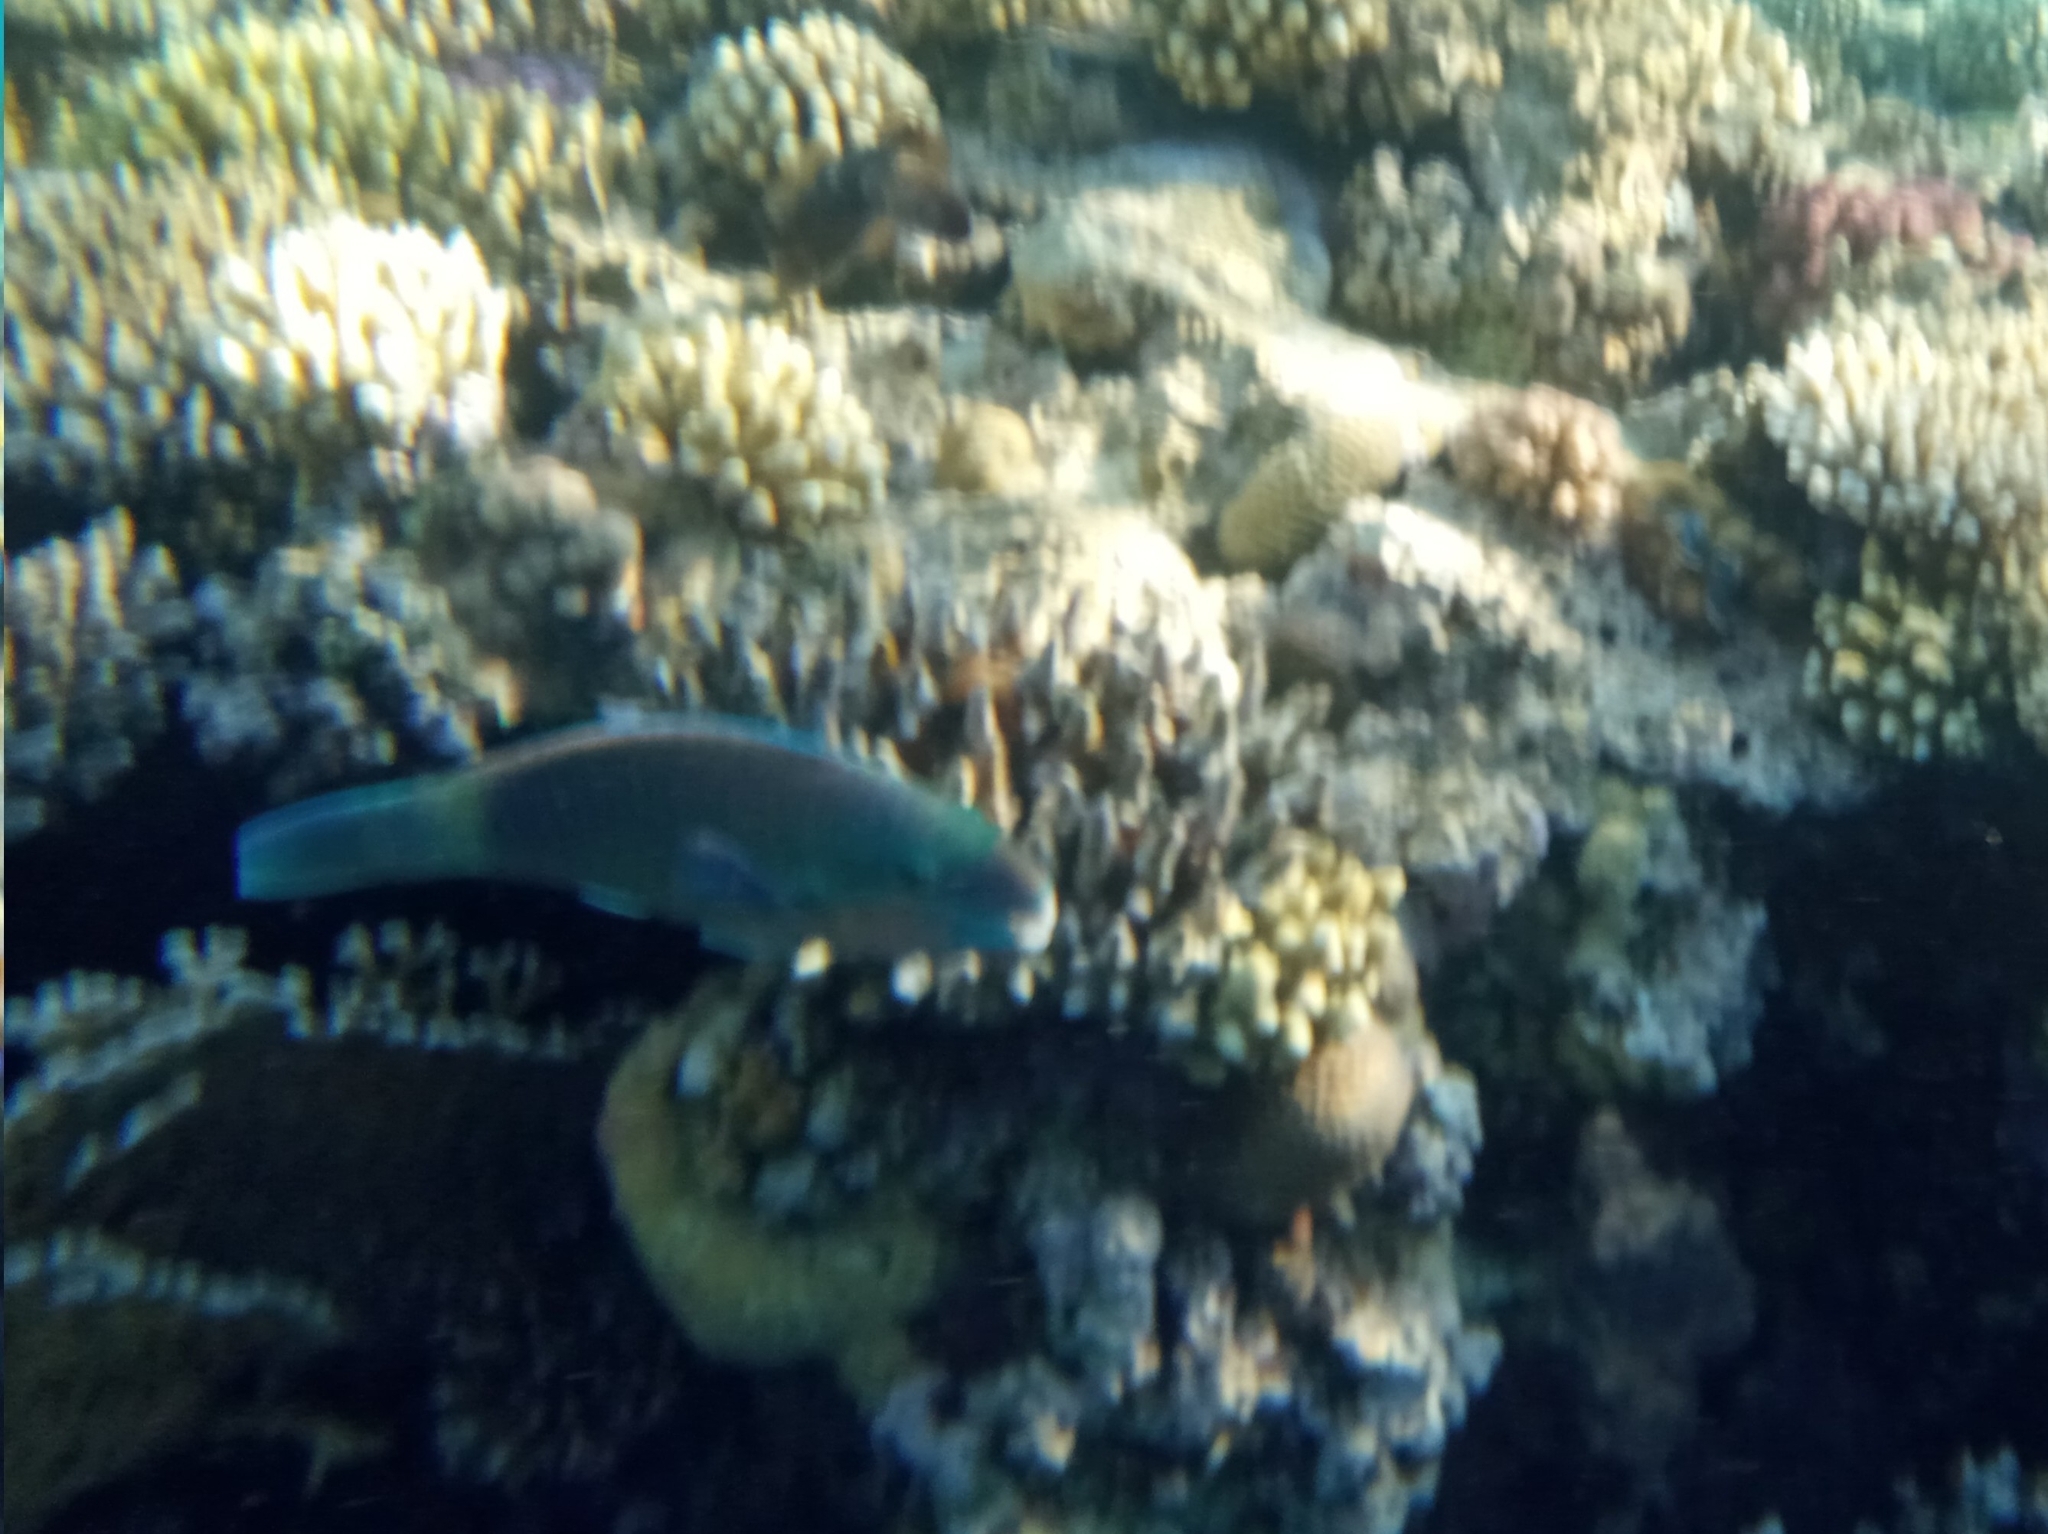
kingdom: Animalia
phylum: Chordata
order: Perciformes
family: Scaridae
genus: Chlorurus
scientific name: Chlorurus sordidus
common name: Bullethead parrotfish
